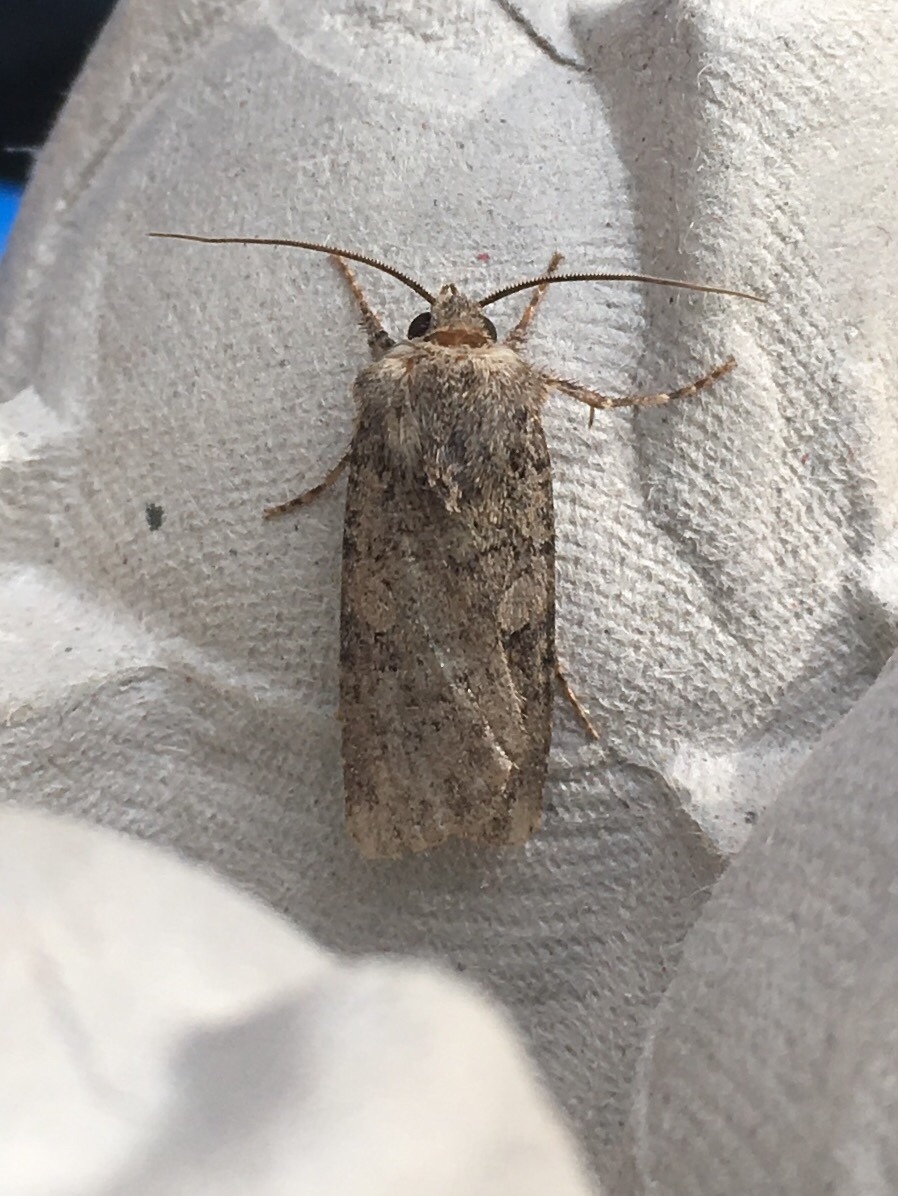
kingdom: Animalia
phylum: Arthropoda
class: Insecta
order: Lepidoptera
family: Noctuidae
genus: Euxoa
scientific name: Euxoa messoria
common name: Darksided cutworm
